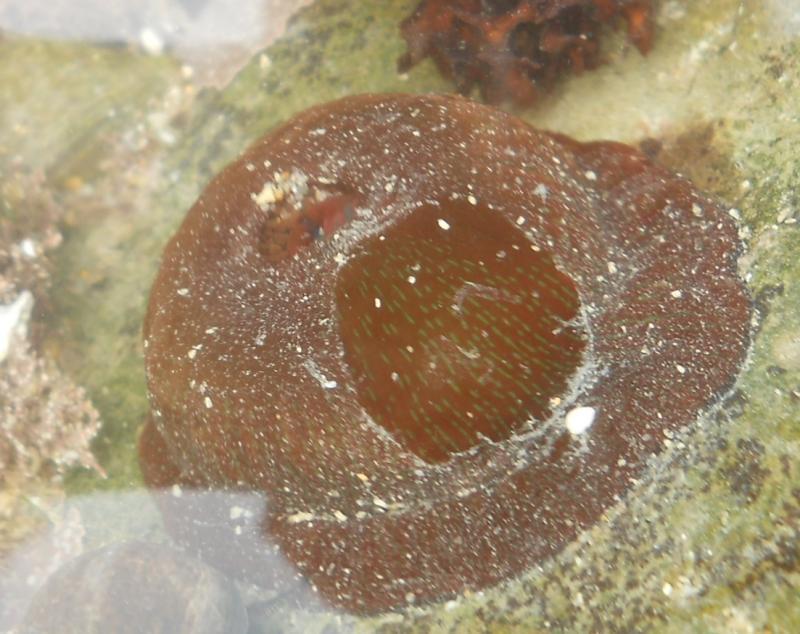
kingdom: Animalia
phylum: Cnidaria
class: Anthozoa
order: Actiniaria
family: Actiniidae
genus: Actinia
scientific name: Actinia equina
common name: Beadlet anemone
